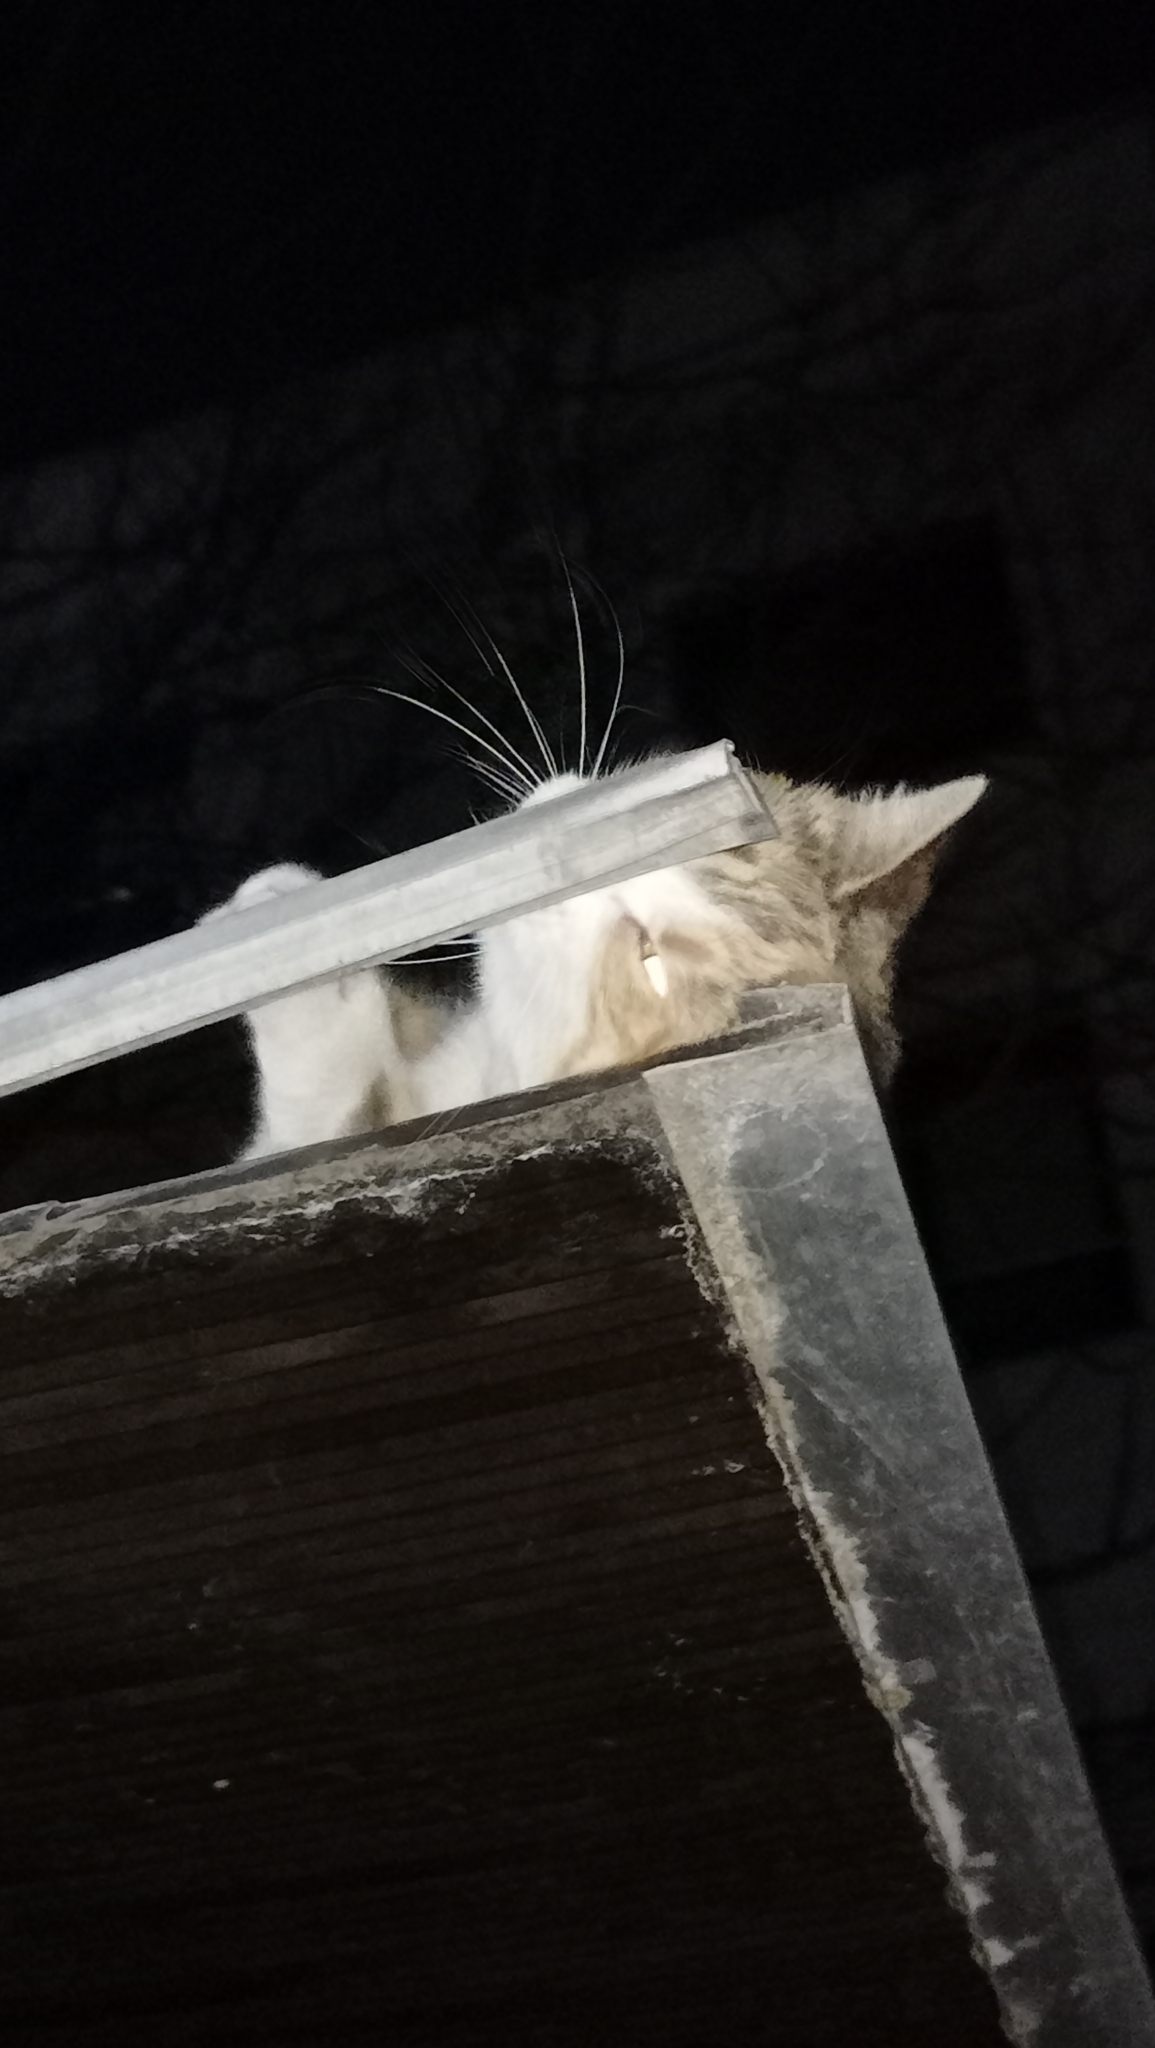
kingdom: Animalia
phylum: Chordata
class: Mammalia
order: Carnivora
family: Felidae
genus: Felis
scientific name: Felis catus
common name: Domestic cat
